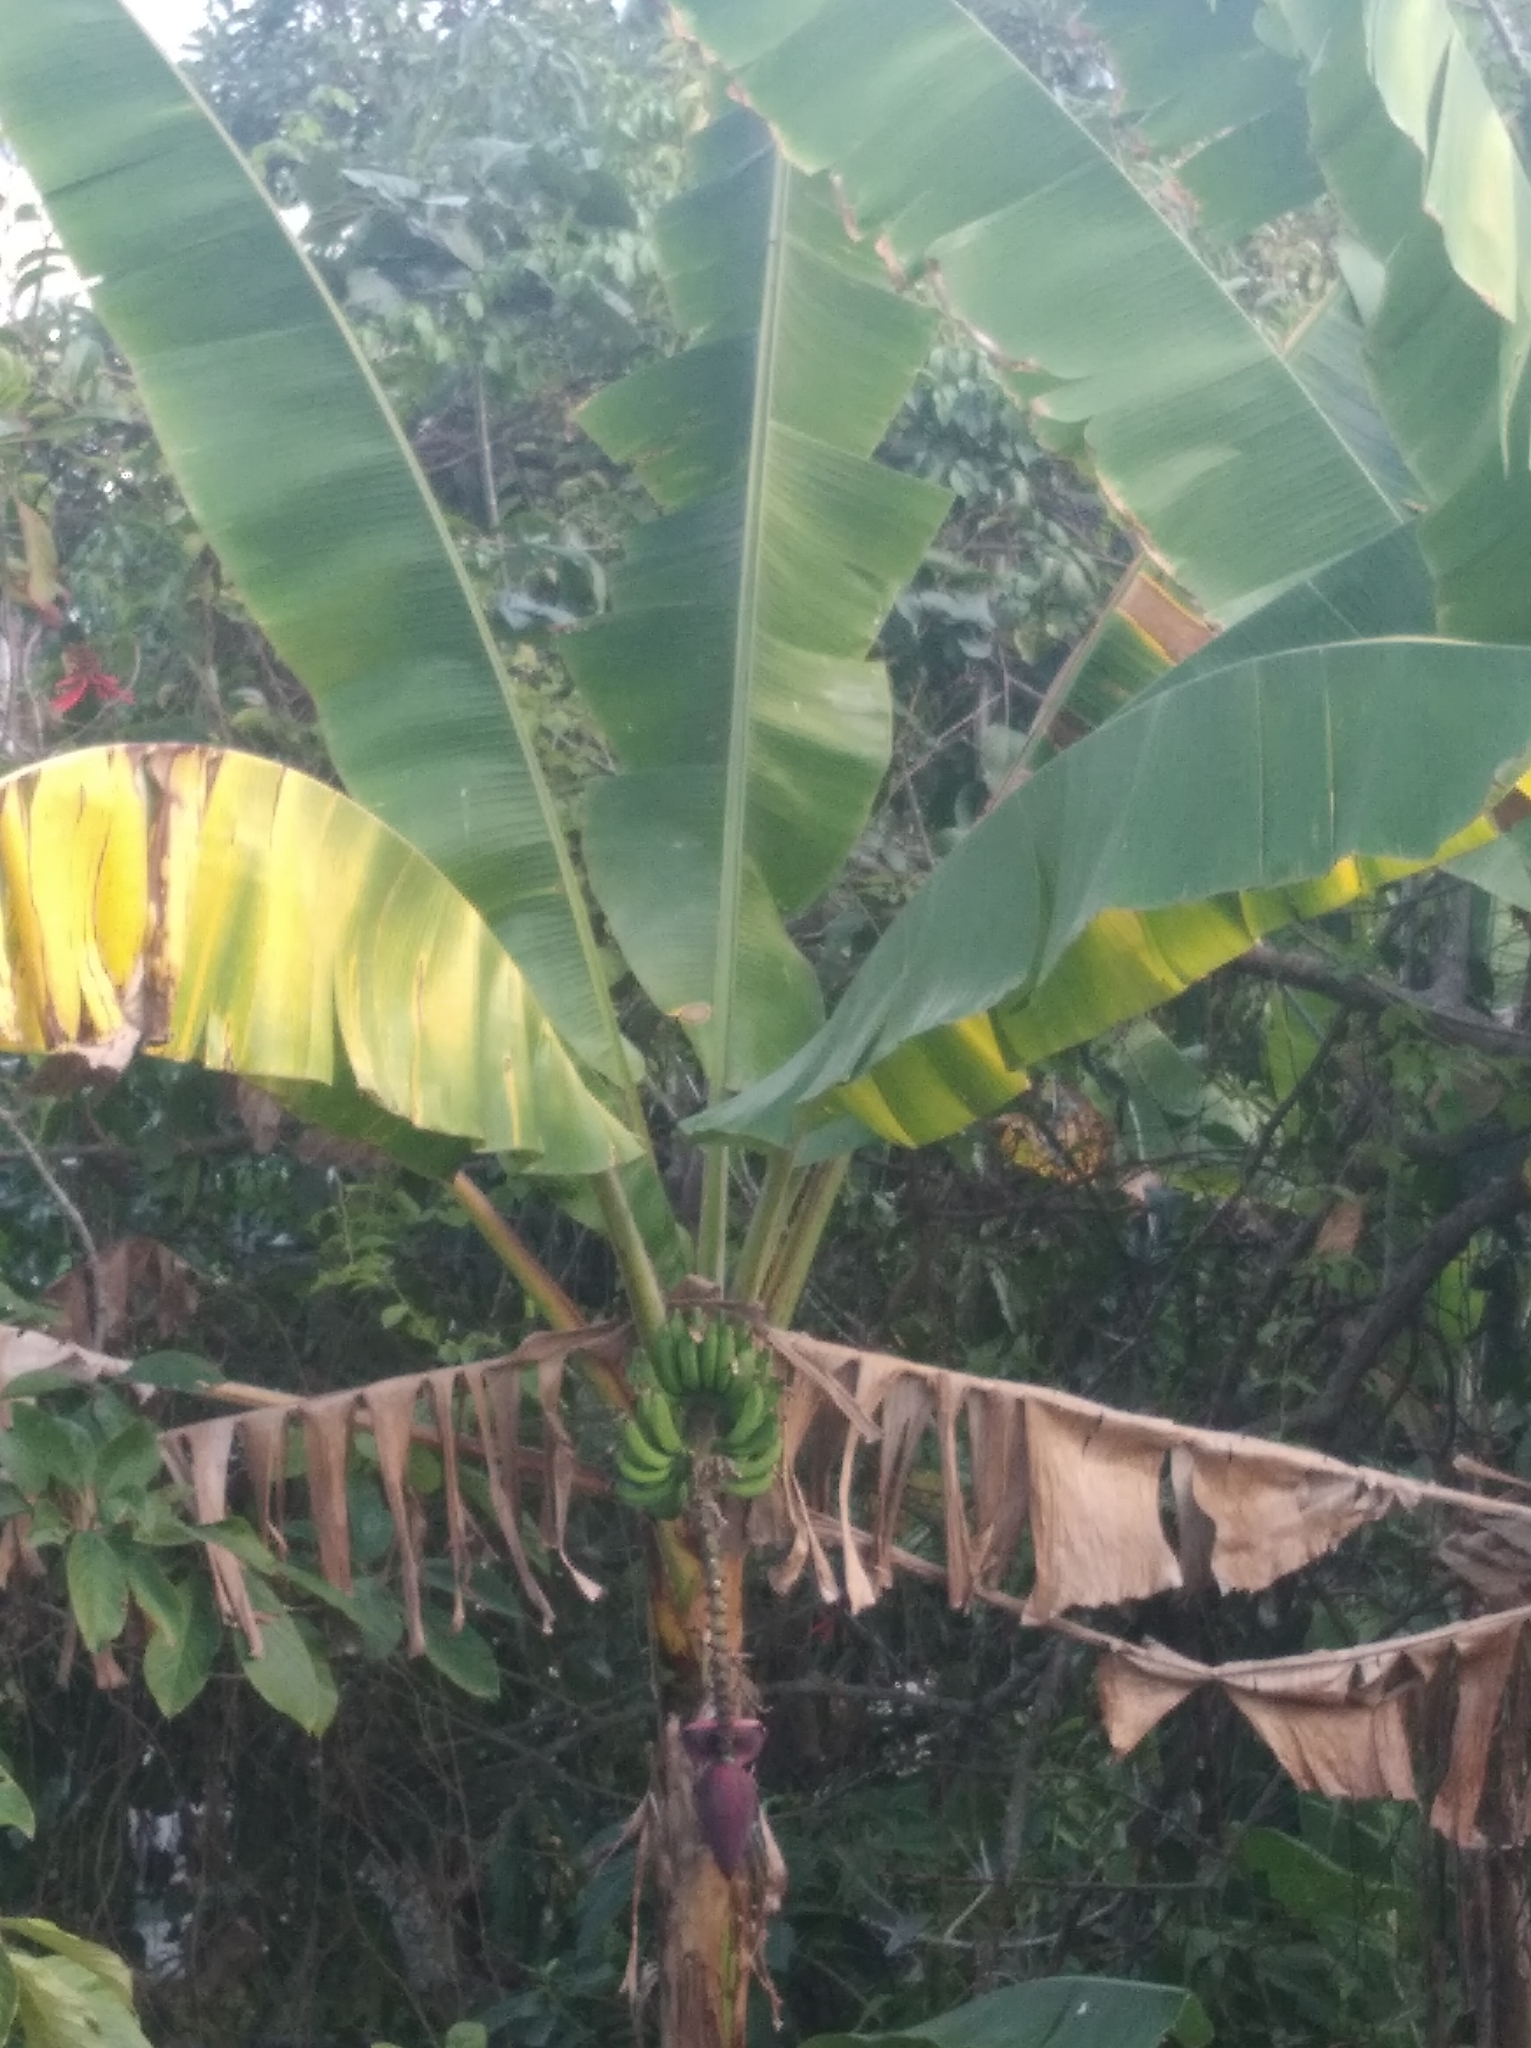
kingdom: Plantae
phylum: Tracheophyta
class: Liliopsida
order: Zingiberales
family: Musaceae
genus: Musa
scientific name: Musa paradisiaca
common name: French plantain
